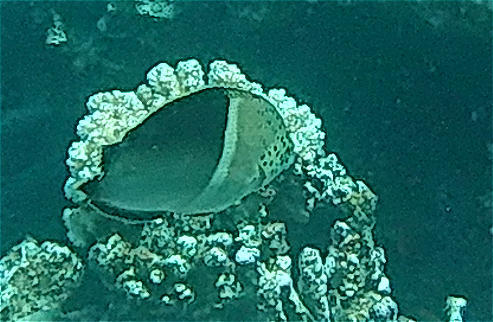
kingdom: Animalia
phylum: Chordata
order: Perciformes
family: Labridae
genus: Coris
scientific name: Coris aygula
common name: Clown coris
